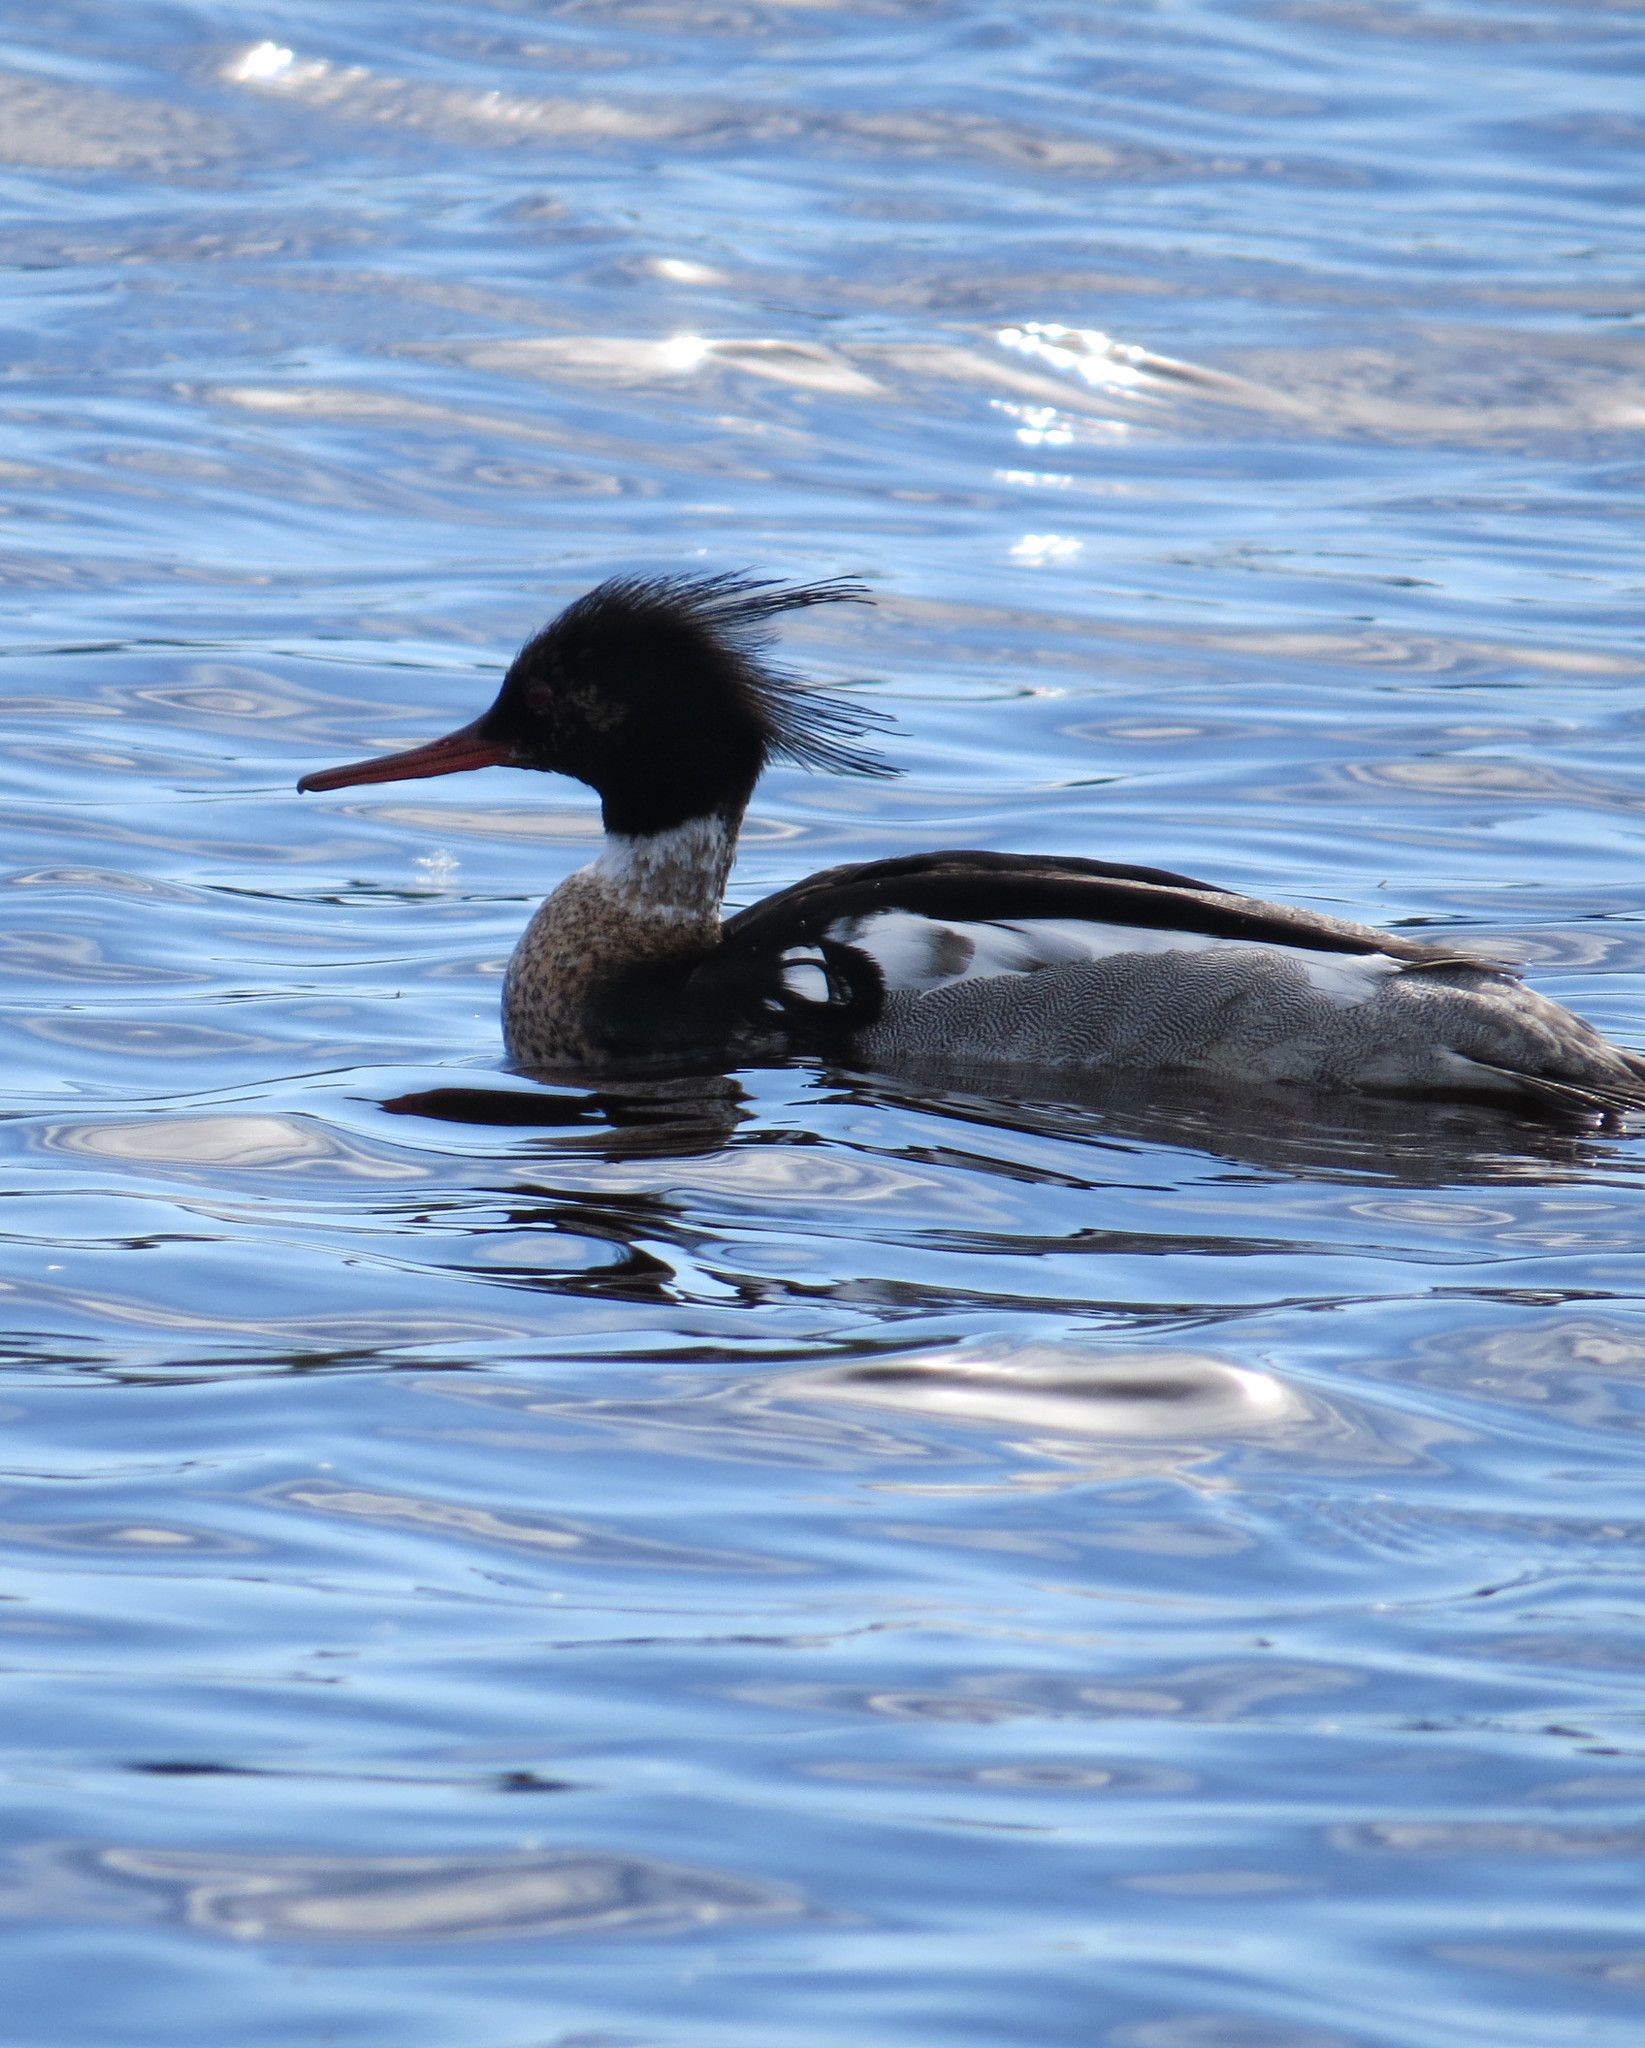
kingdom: Animalia
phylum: Chordata
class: Aves
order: Anseriformes
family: Anatidae
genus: Mergus
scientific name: Mergus serrator
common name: Red-breasted merganser
